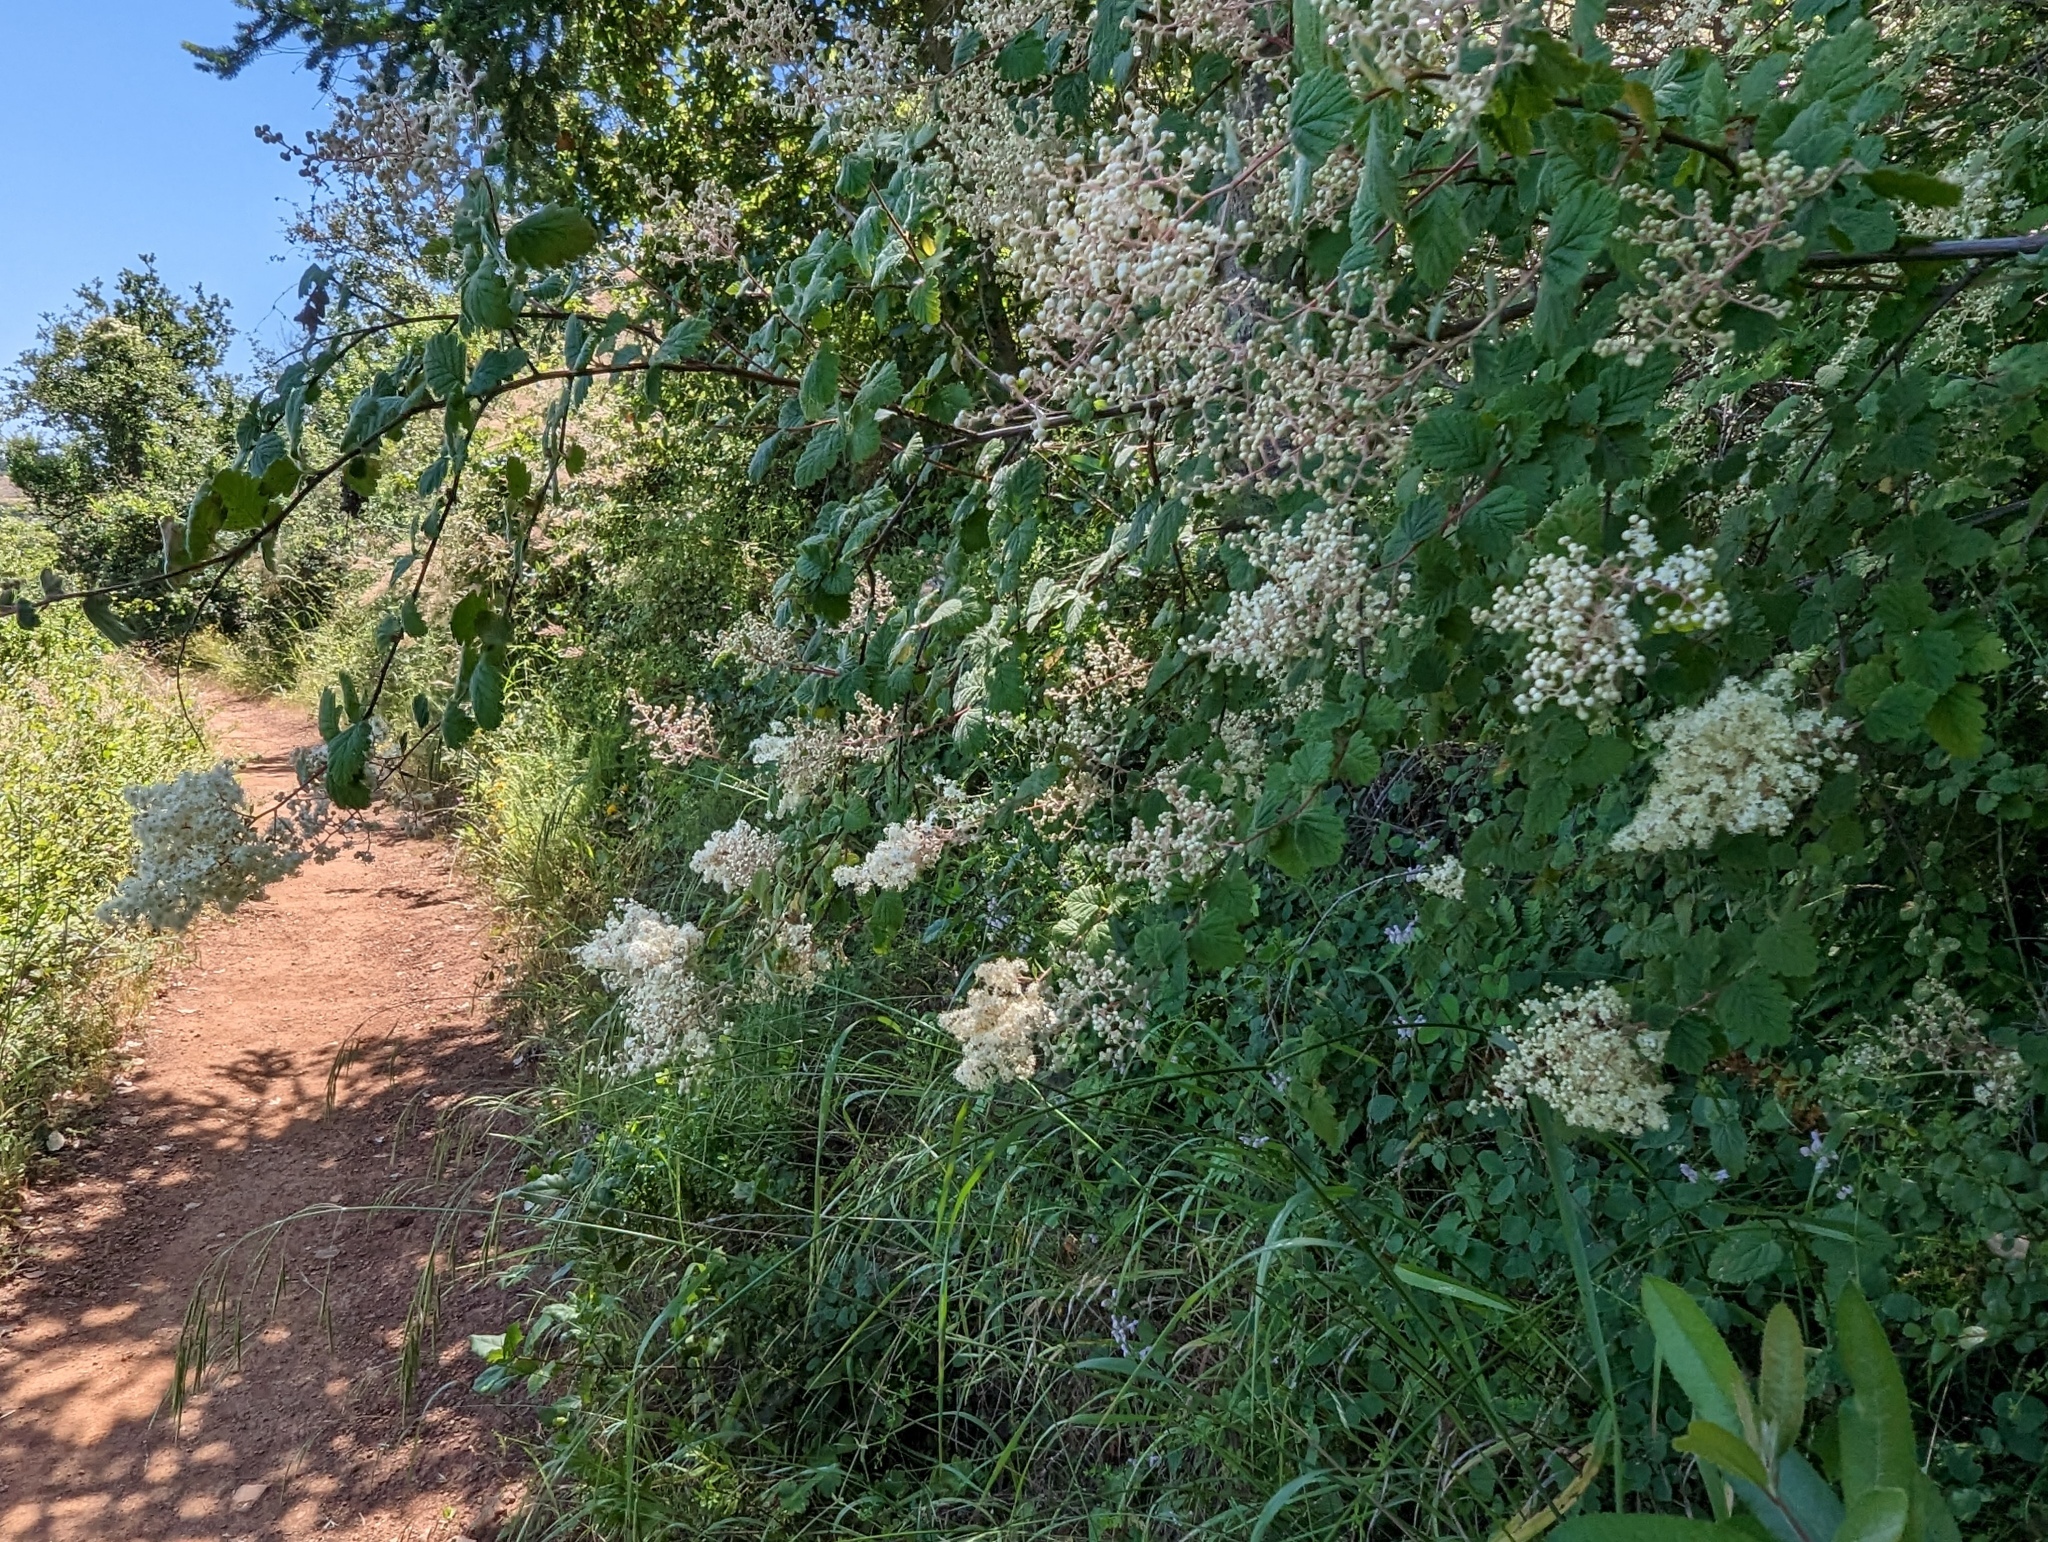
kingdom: Plantae
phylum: Tracheophyta
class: Magnoliopsida
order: Rosales
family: Rosaceae
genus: Holodiscus
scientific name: Holodiscus discolor
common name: Oceanspray
